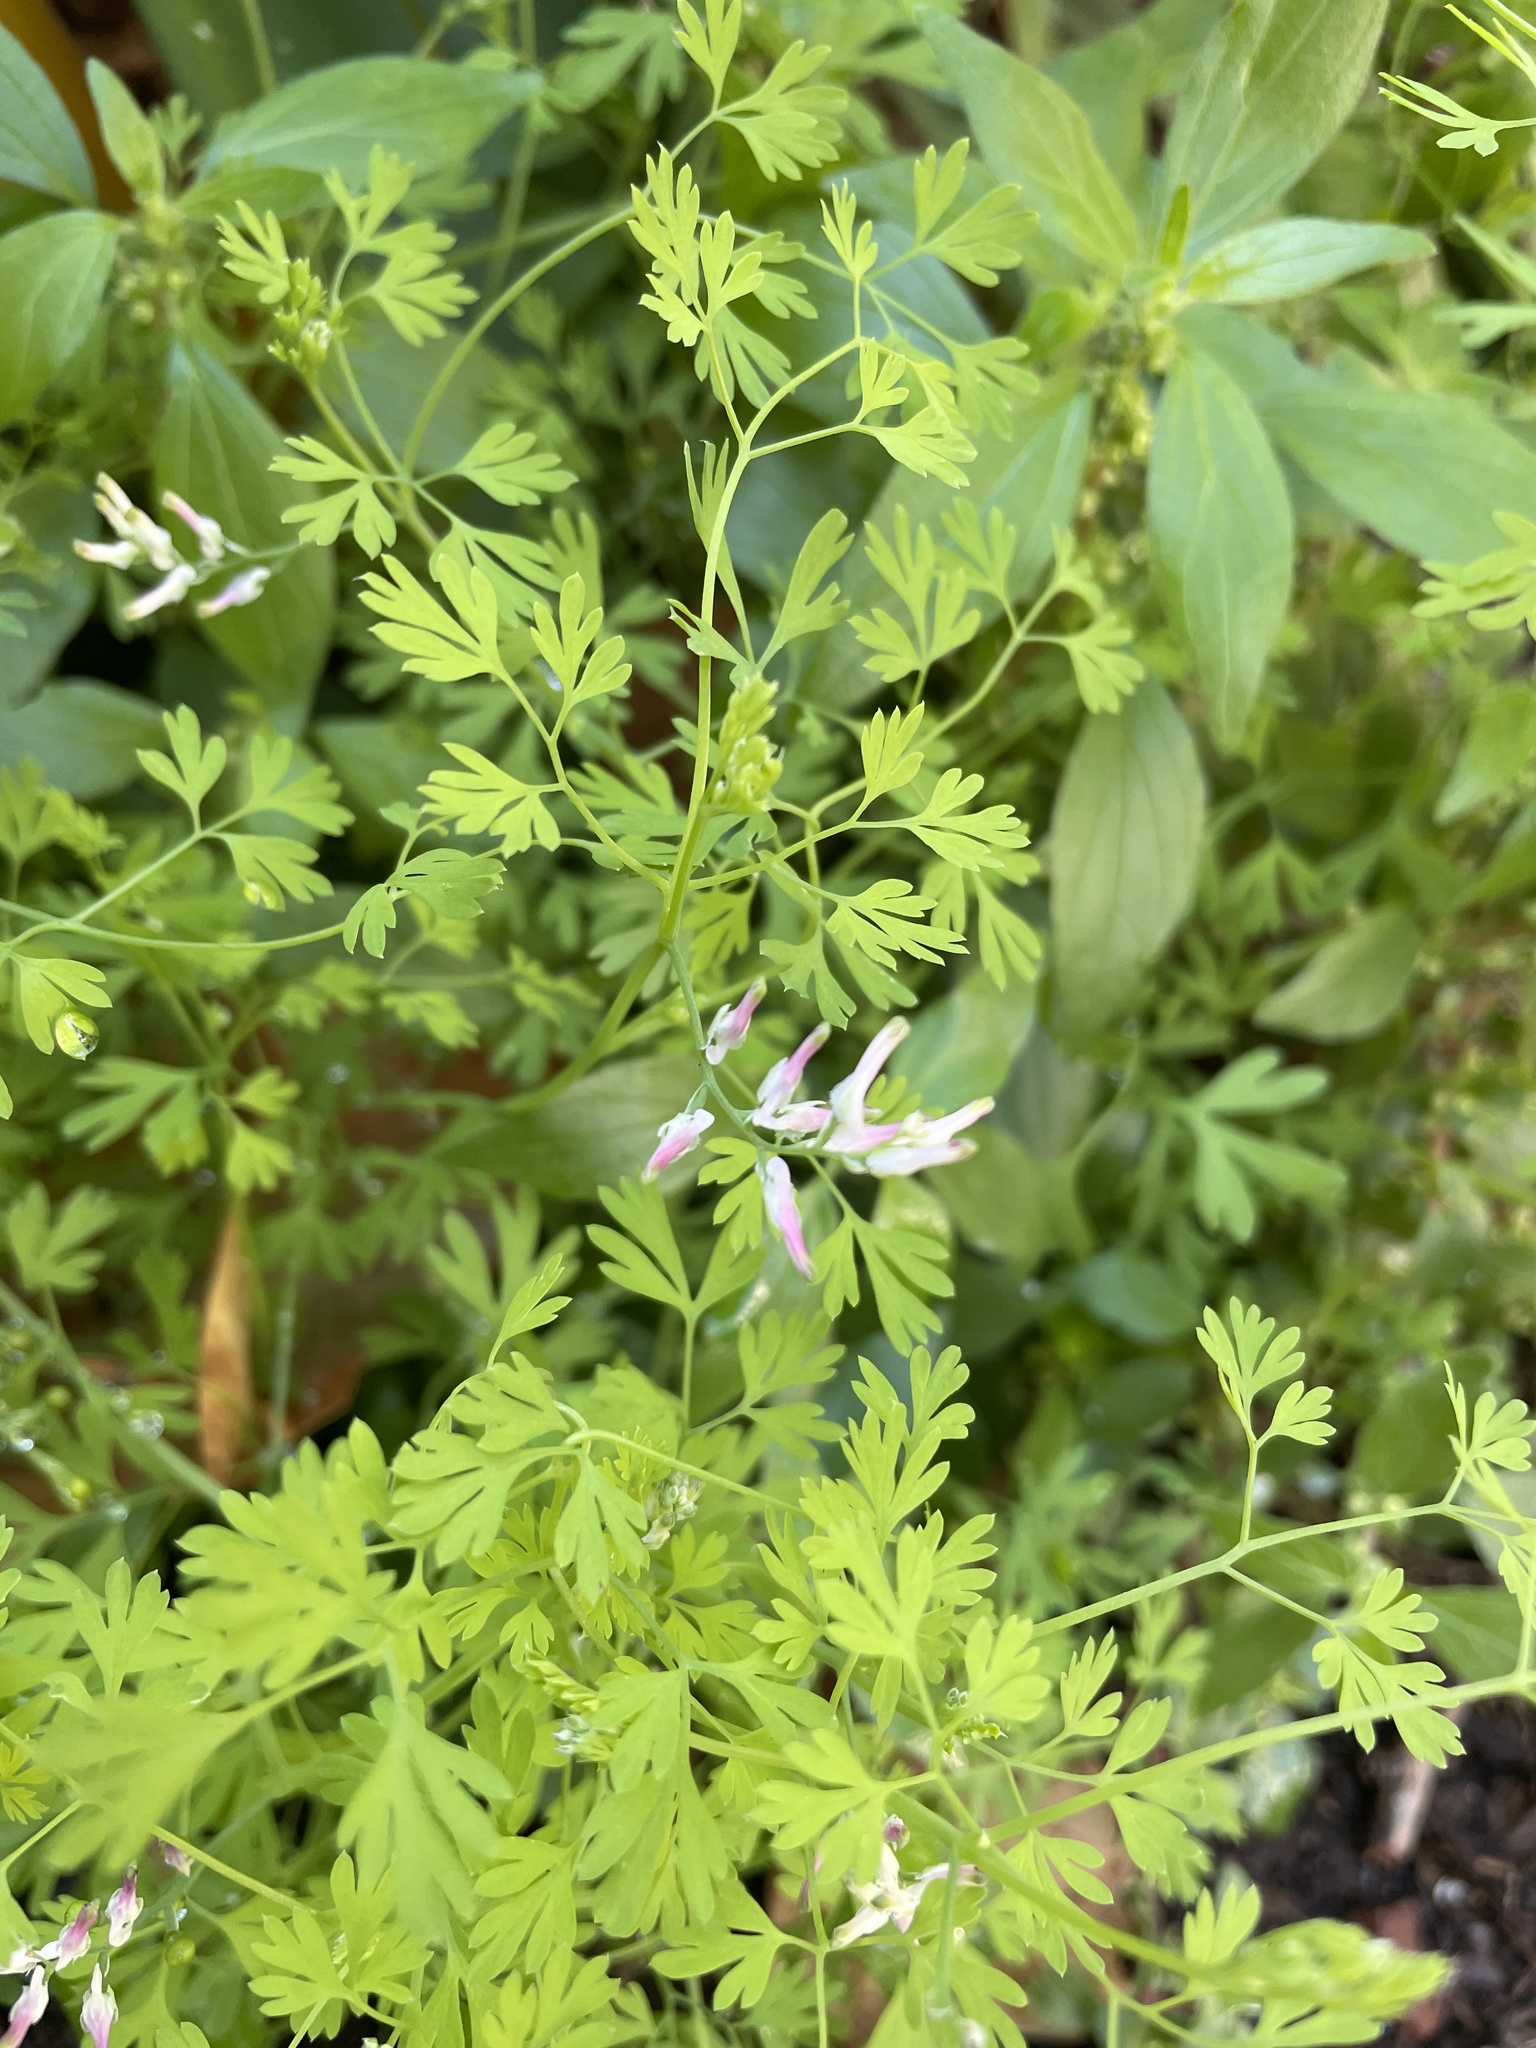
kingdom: Plantae
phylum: Tracheophyta
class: Magnoliopsida
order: Ranunculales
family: Papaveraceae
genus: Fumaria
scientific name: Fumaria muralis
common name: Common ramping-fumitory
